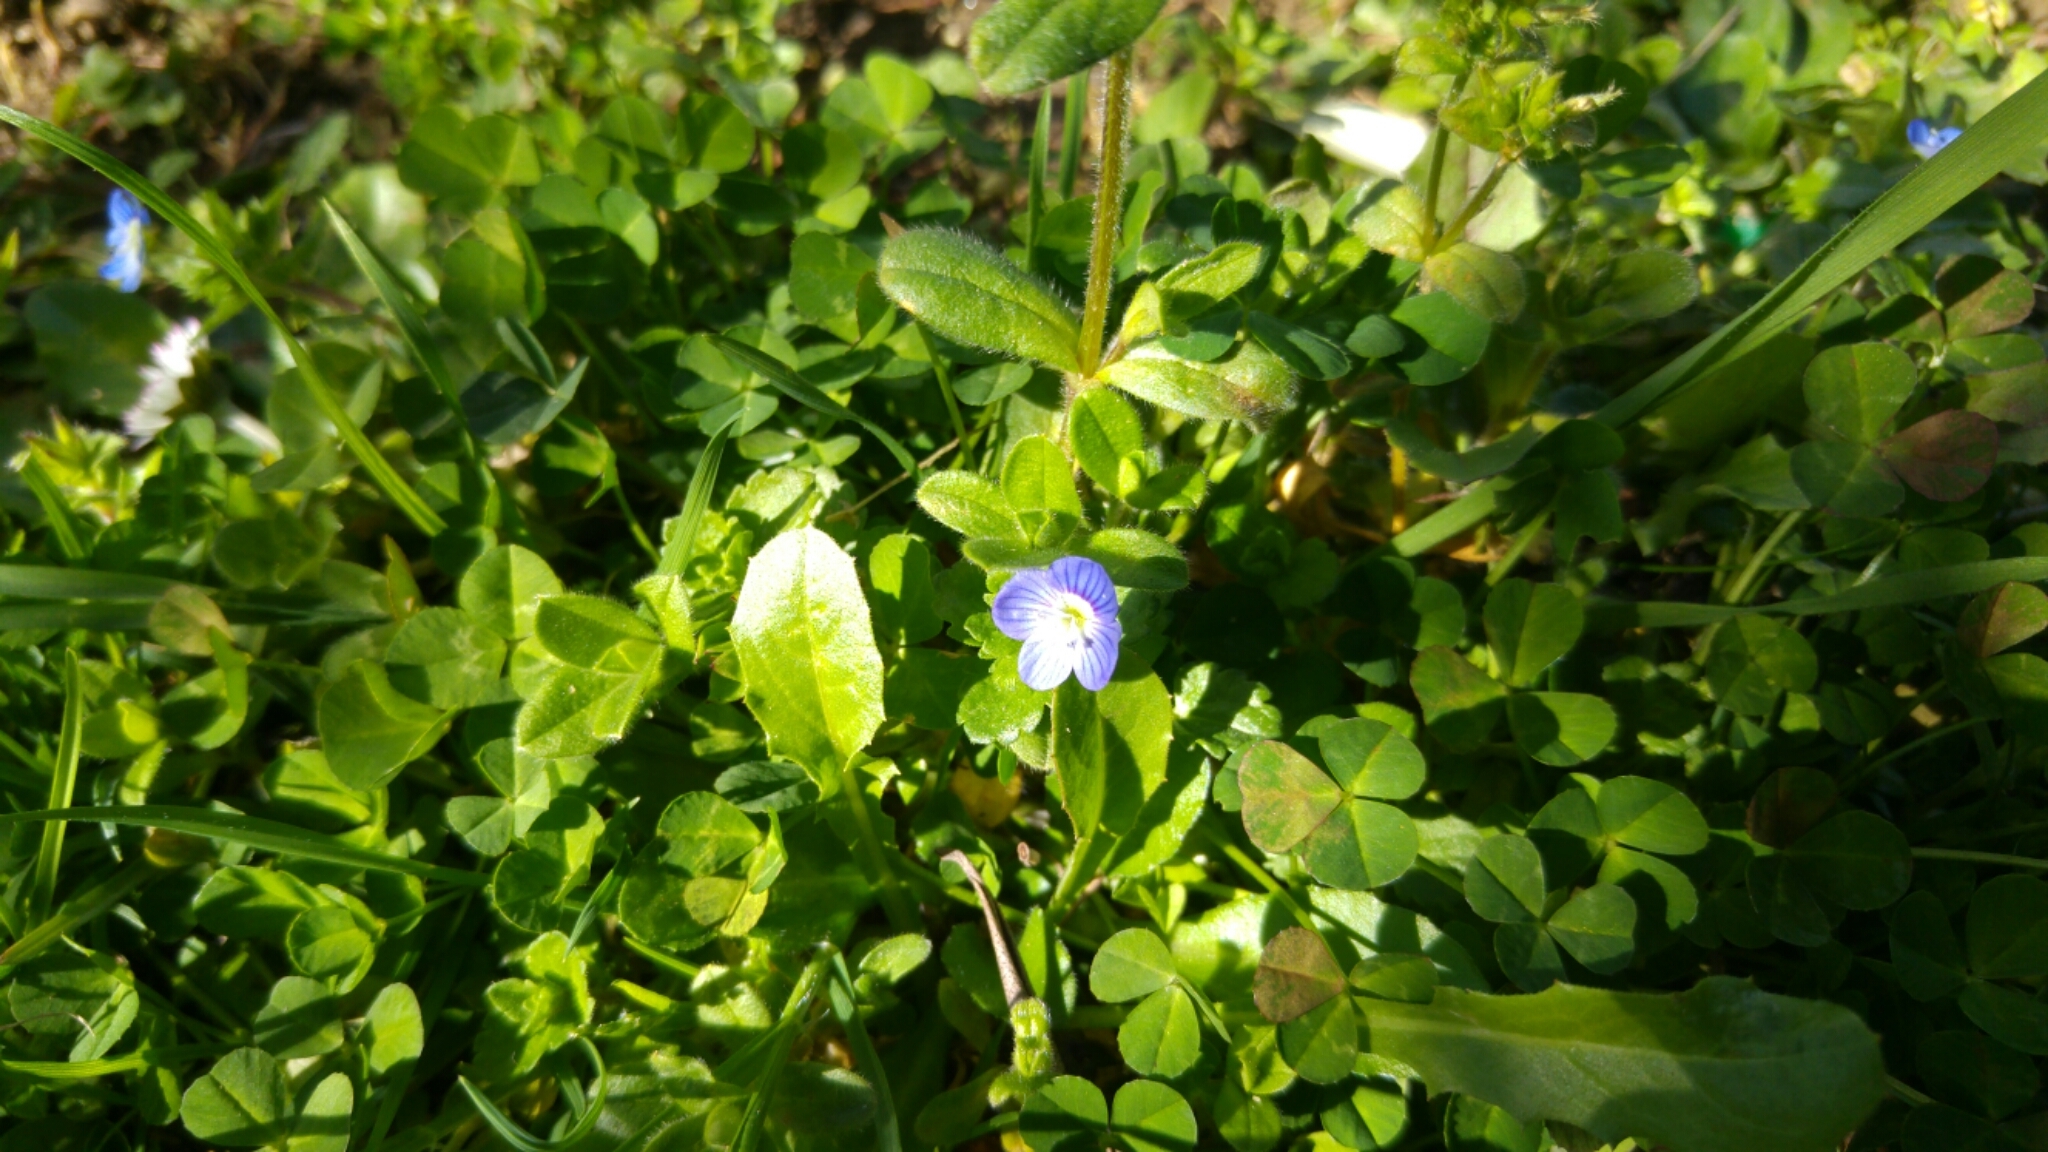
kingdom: Plantae
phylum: Tracheophyta
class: Magnoliopsida
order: Lamiales
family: Plantaginaceae
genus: Veronica
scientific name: Veronica persica
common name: Common field-speedwell
